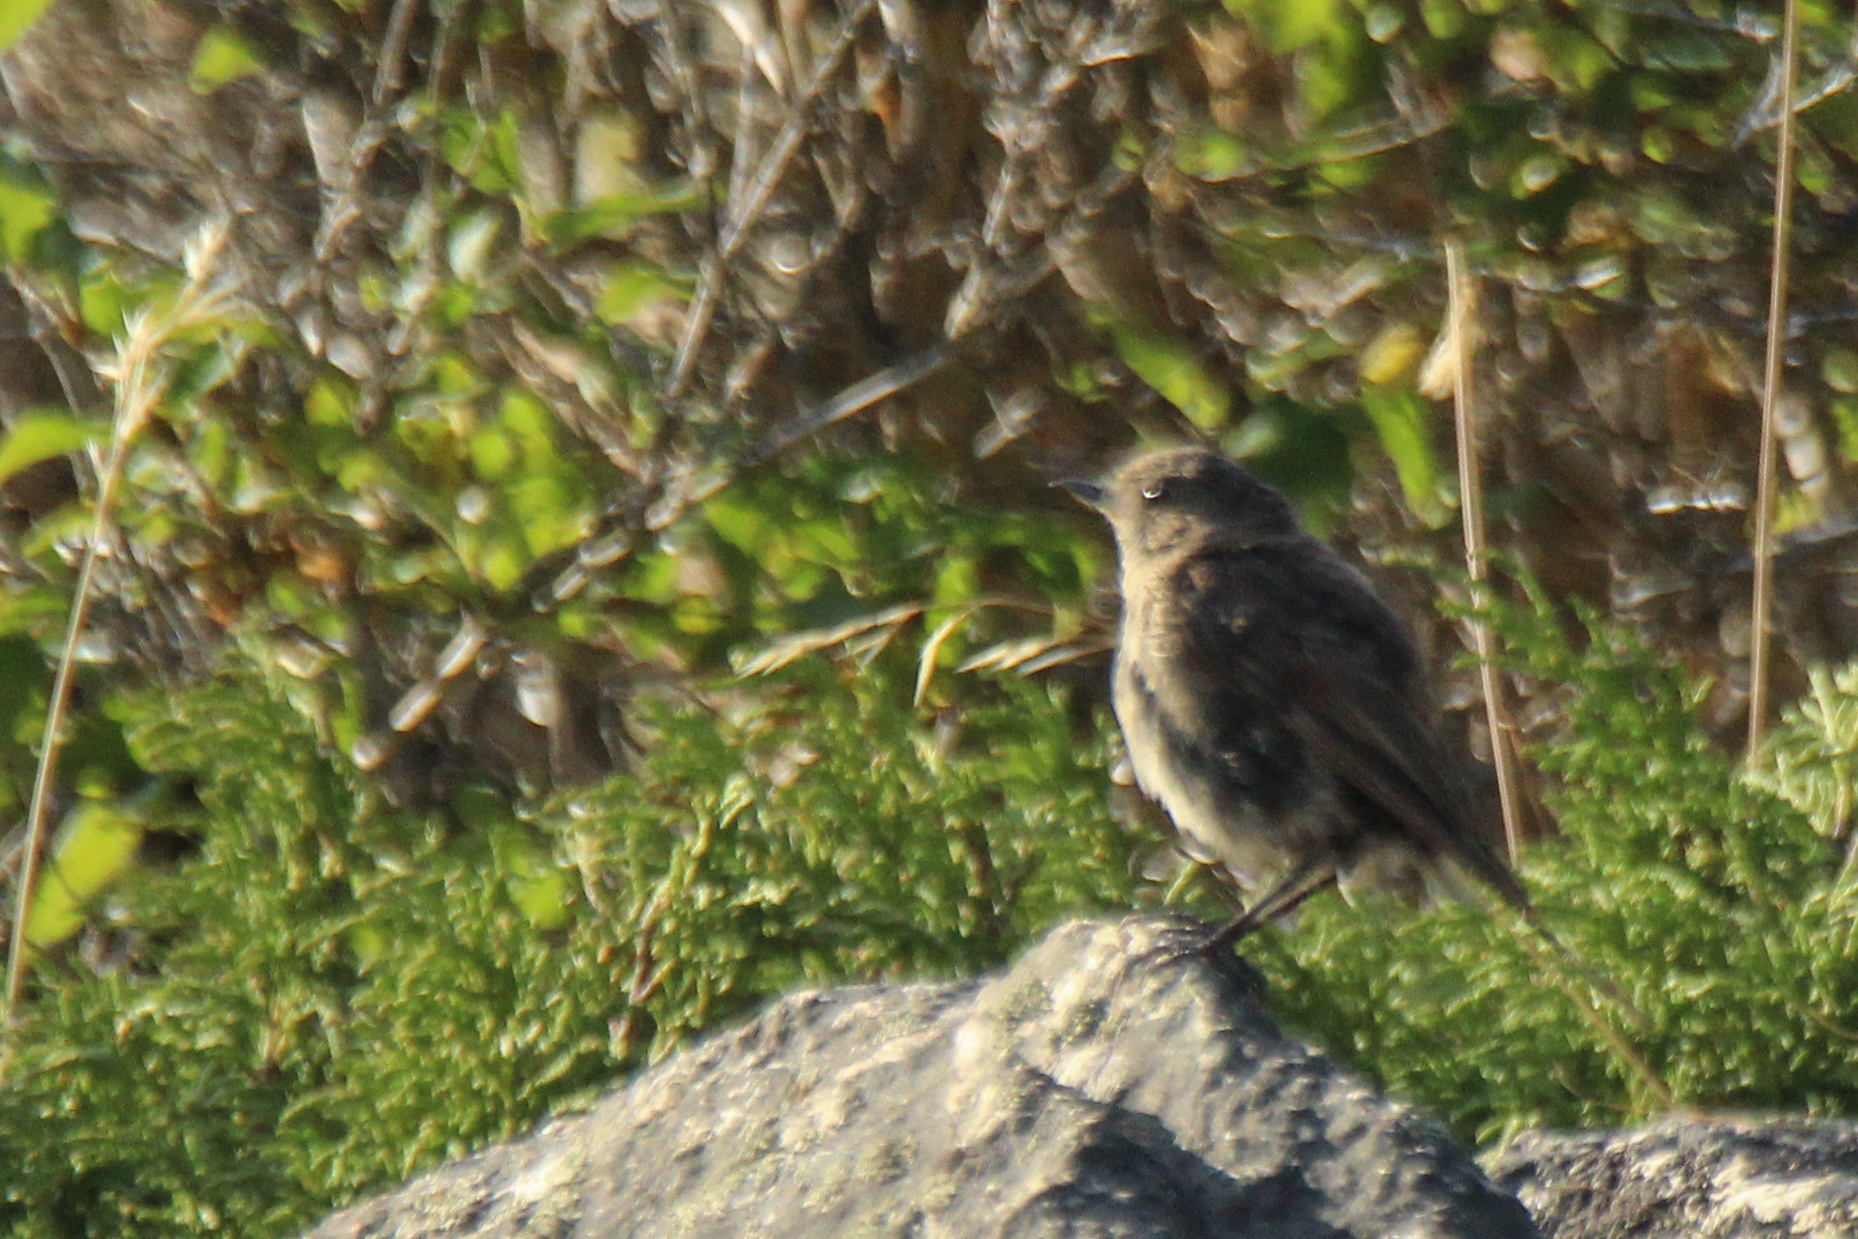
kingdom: Animalia
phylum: Chordata
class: Aves
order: Passeriformes
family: Muscicapidae
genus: Phoenicurus
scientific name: Phoenicurus ochruros
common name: Black redstart
